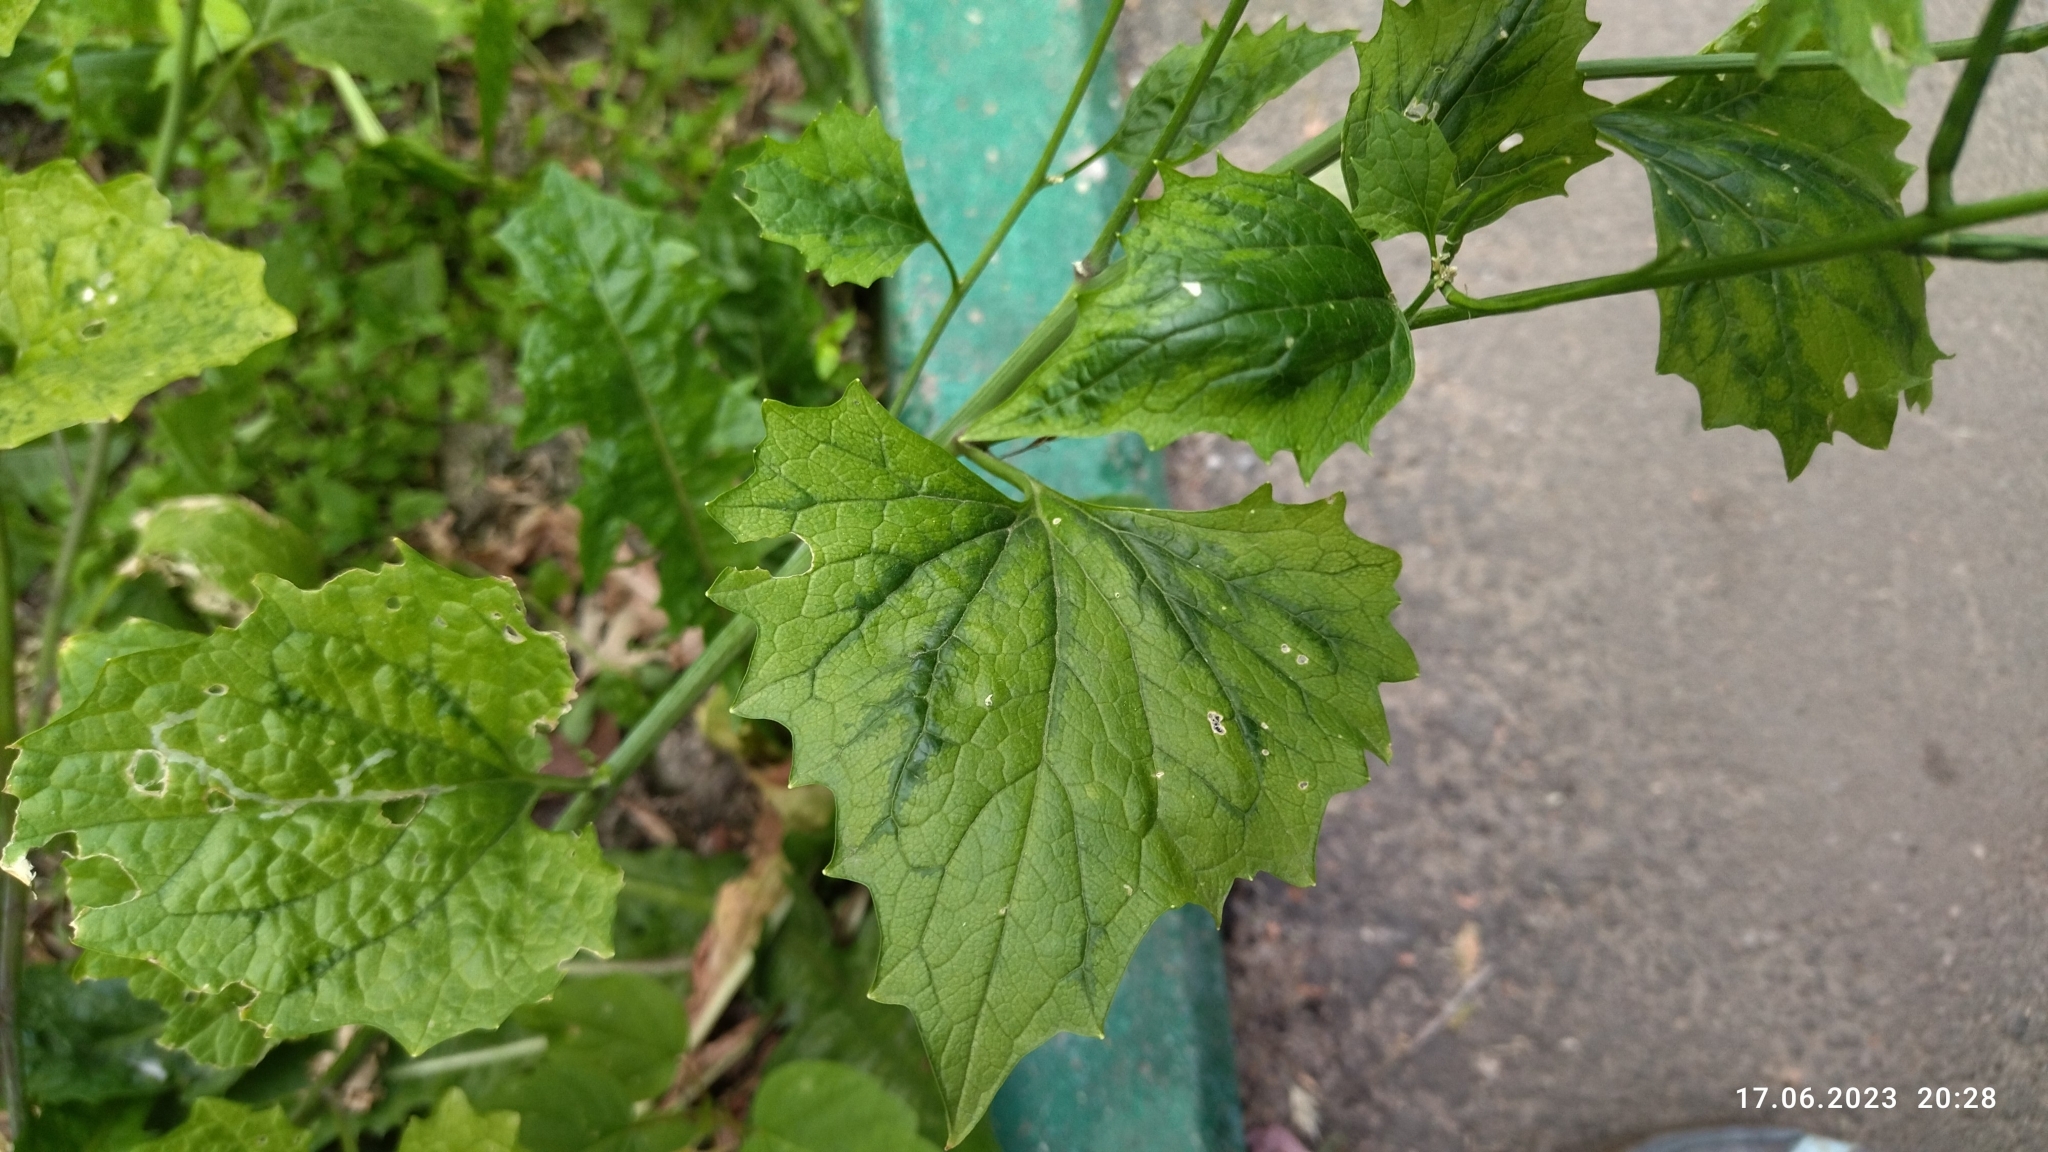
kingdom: Plantae
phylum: Tracheophyta
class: Magnoliopsida
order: Brassicales
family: Brassicaceae
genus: Alliaria
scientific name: Alliaria petiolata
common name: Garlic mustard
